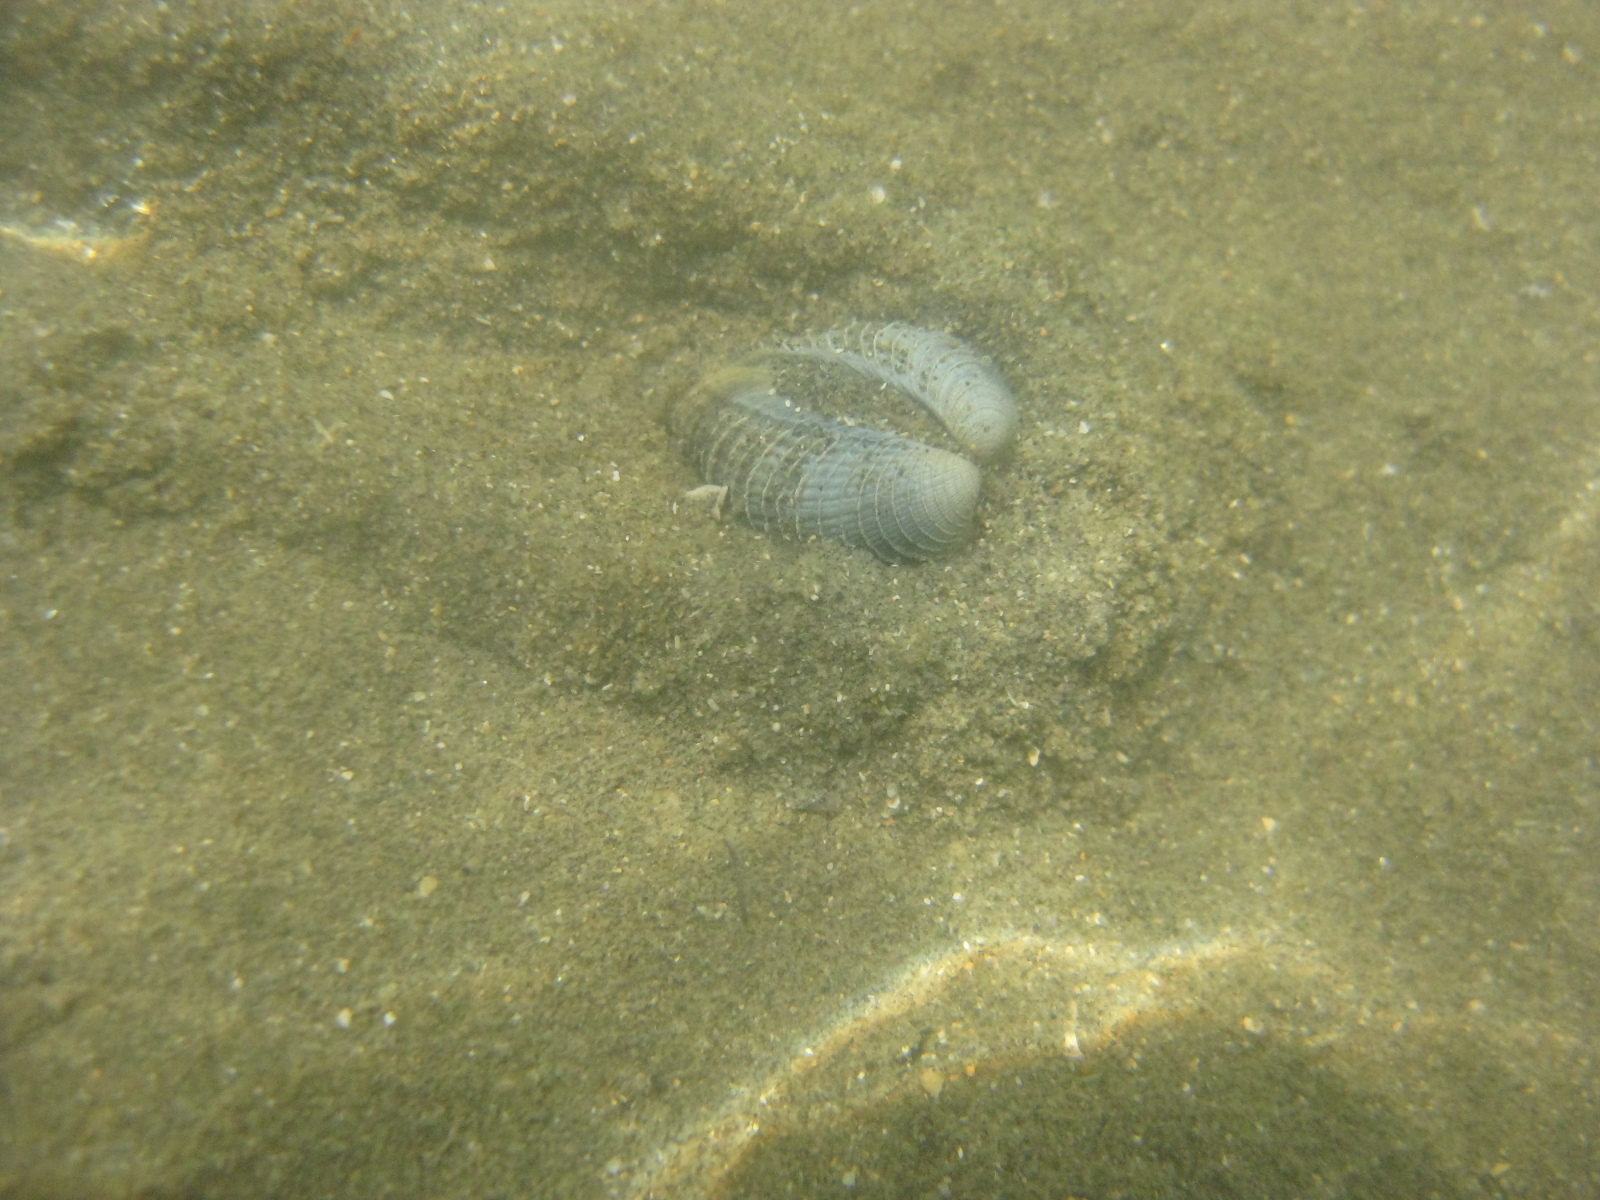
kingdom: Animalia
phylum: Mollusca
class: Bivalvia
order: Venerida
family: Veneridae
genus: Austrovenus
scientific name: Austrovenus stutchburyi
